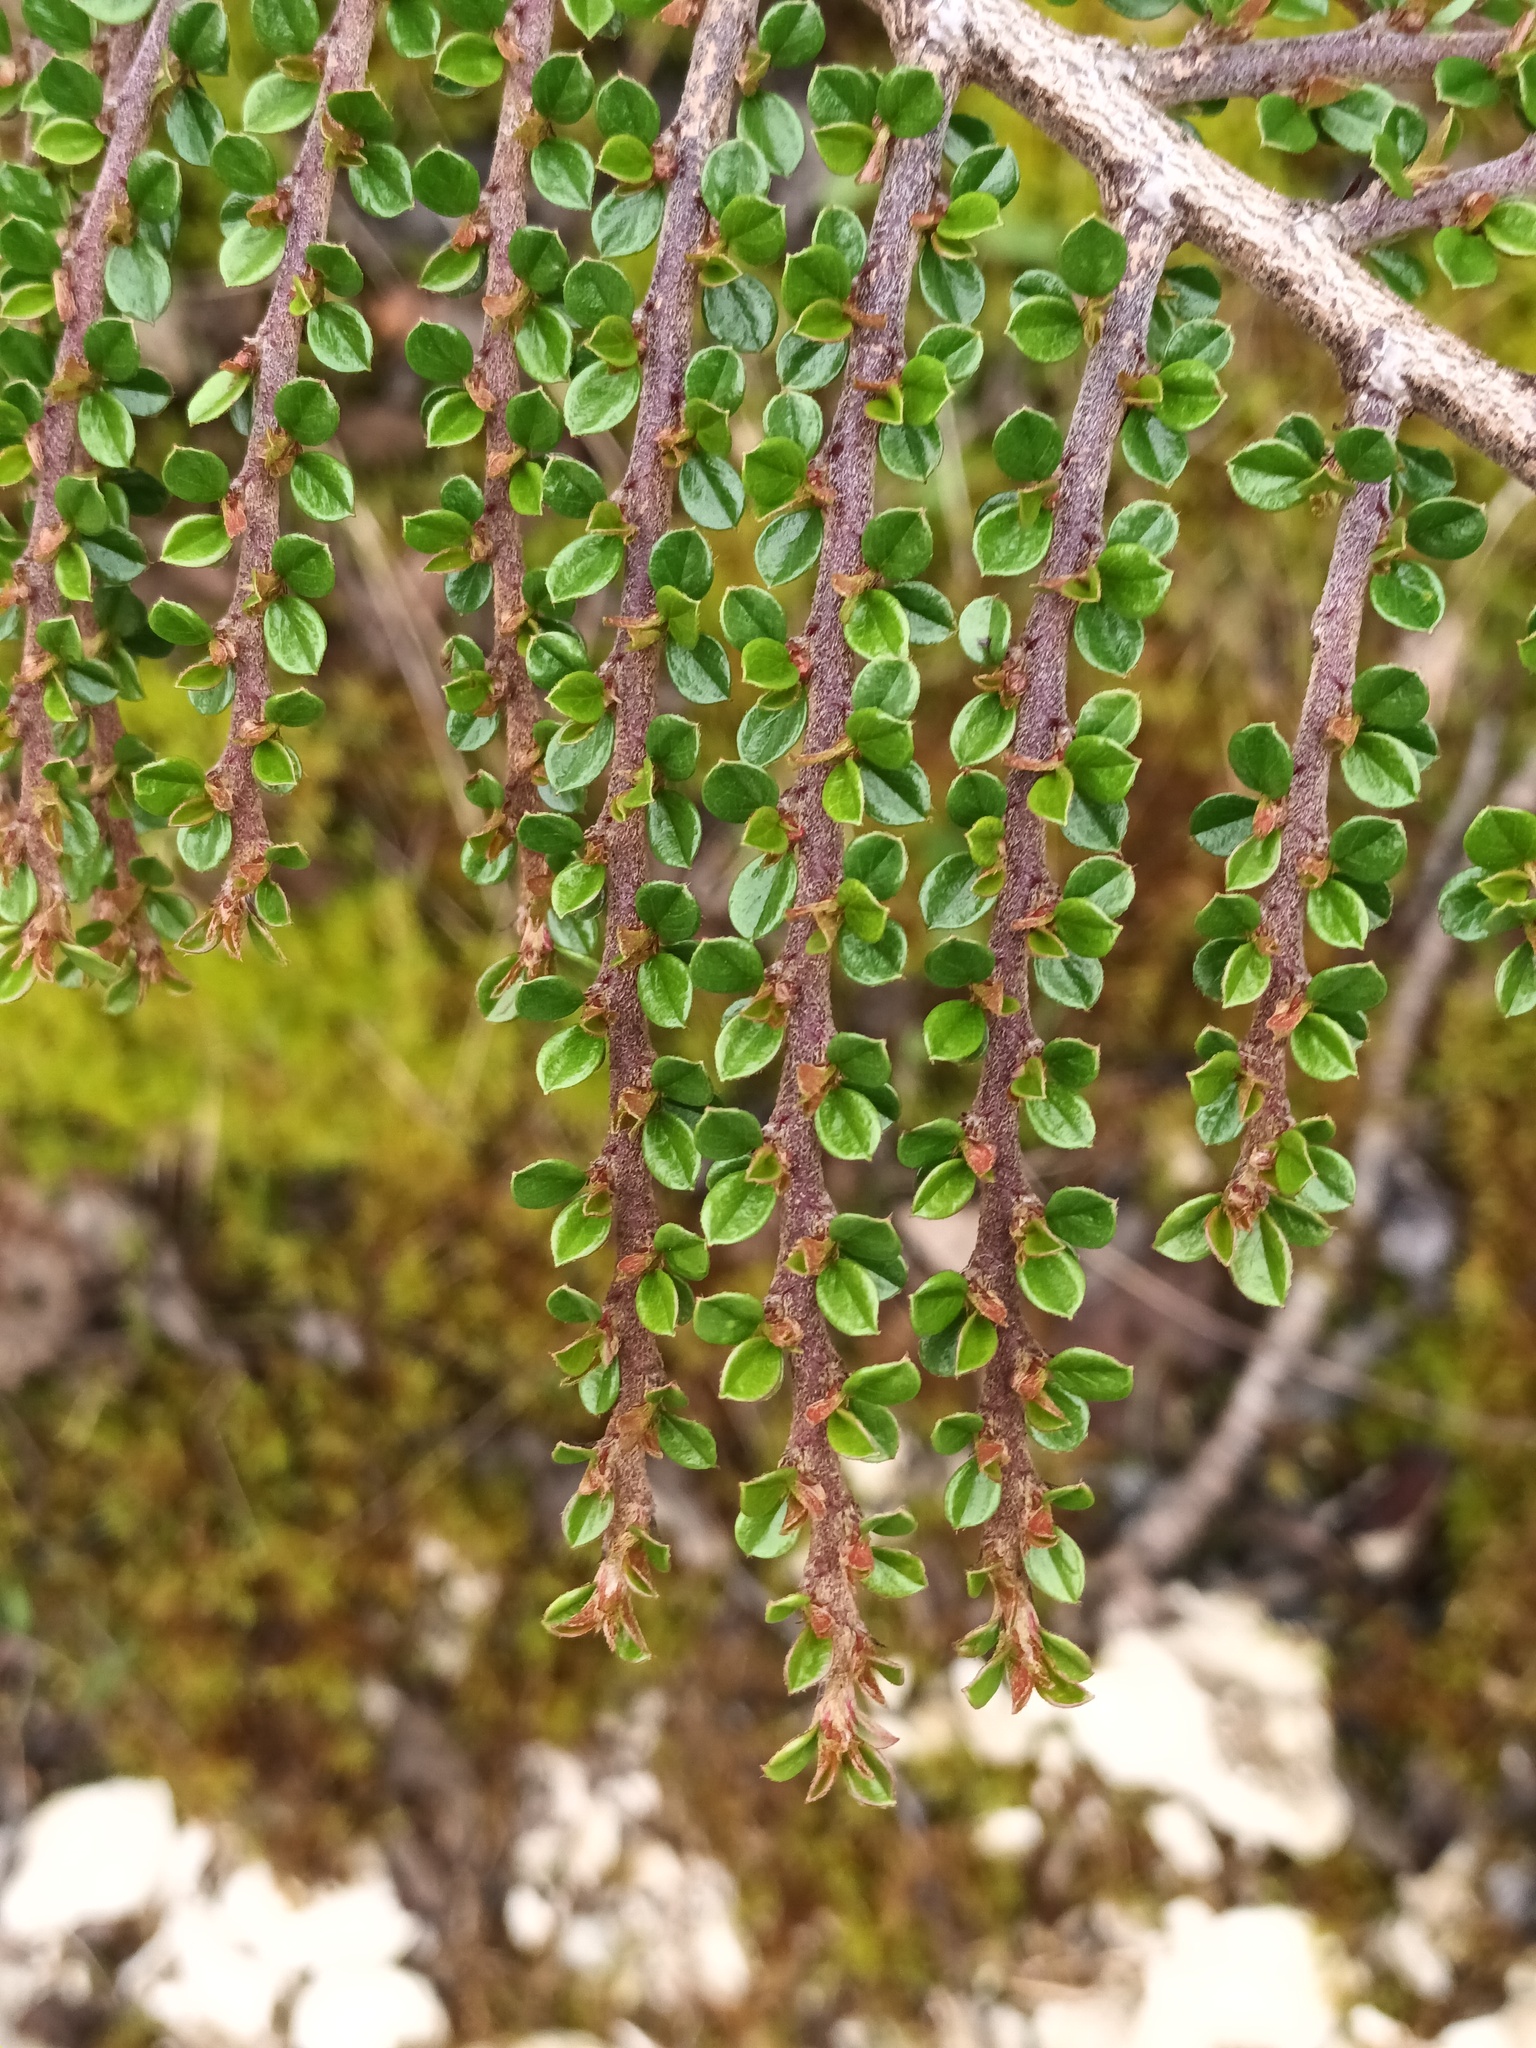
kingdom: Plantae
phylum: Tracheophyta
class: Magnoliopsida
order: Rosales
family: Rosaceae
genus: Cotoneaster
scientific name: Cotoneaster horizontalis
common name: Wall cotoneaster
